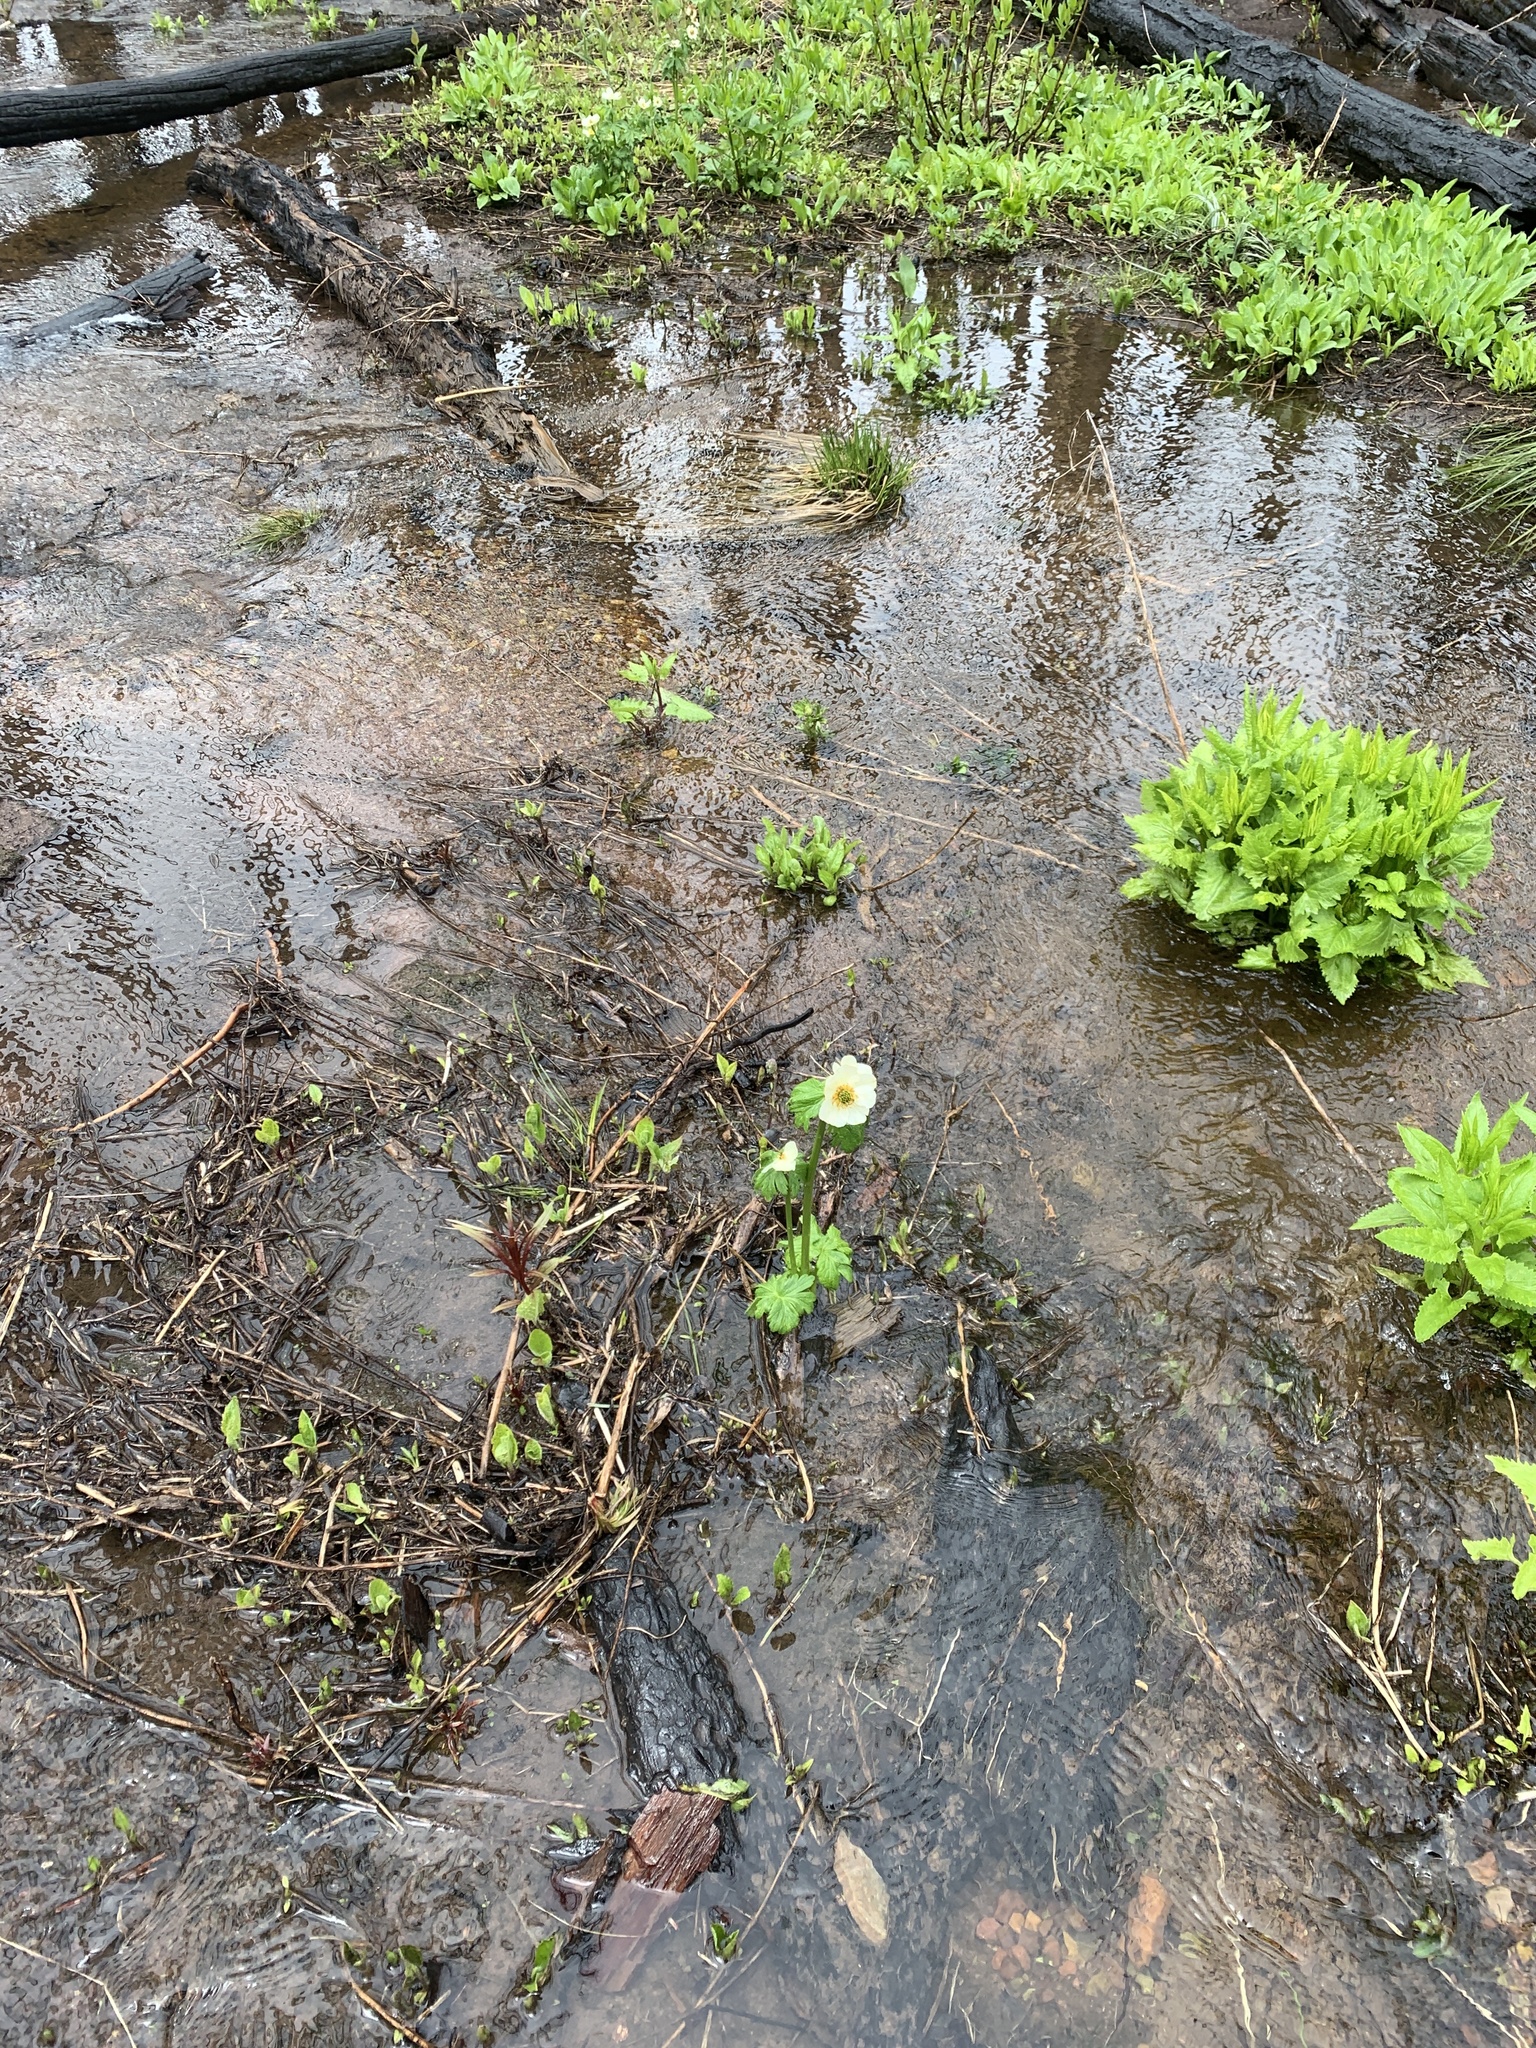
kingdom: Plantae
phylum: Tracheophyta
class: Magnoliopsida
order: Ranunculales
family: Ranunculaceae
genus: Trollius
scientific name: Trollius laxus
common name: American globeflower
